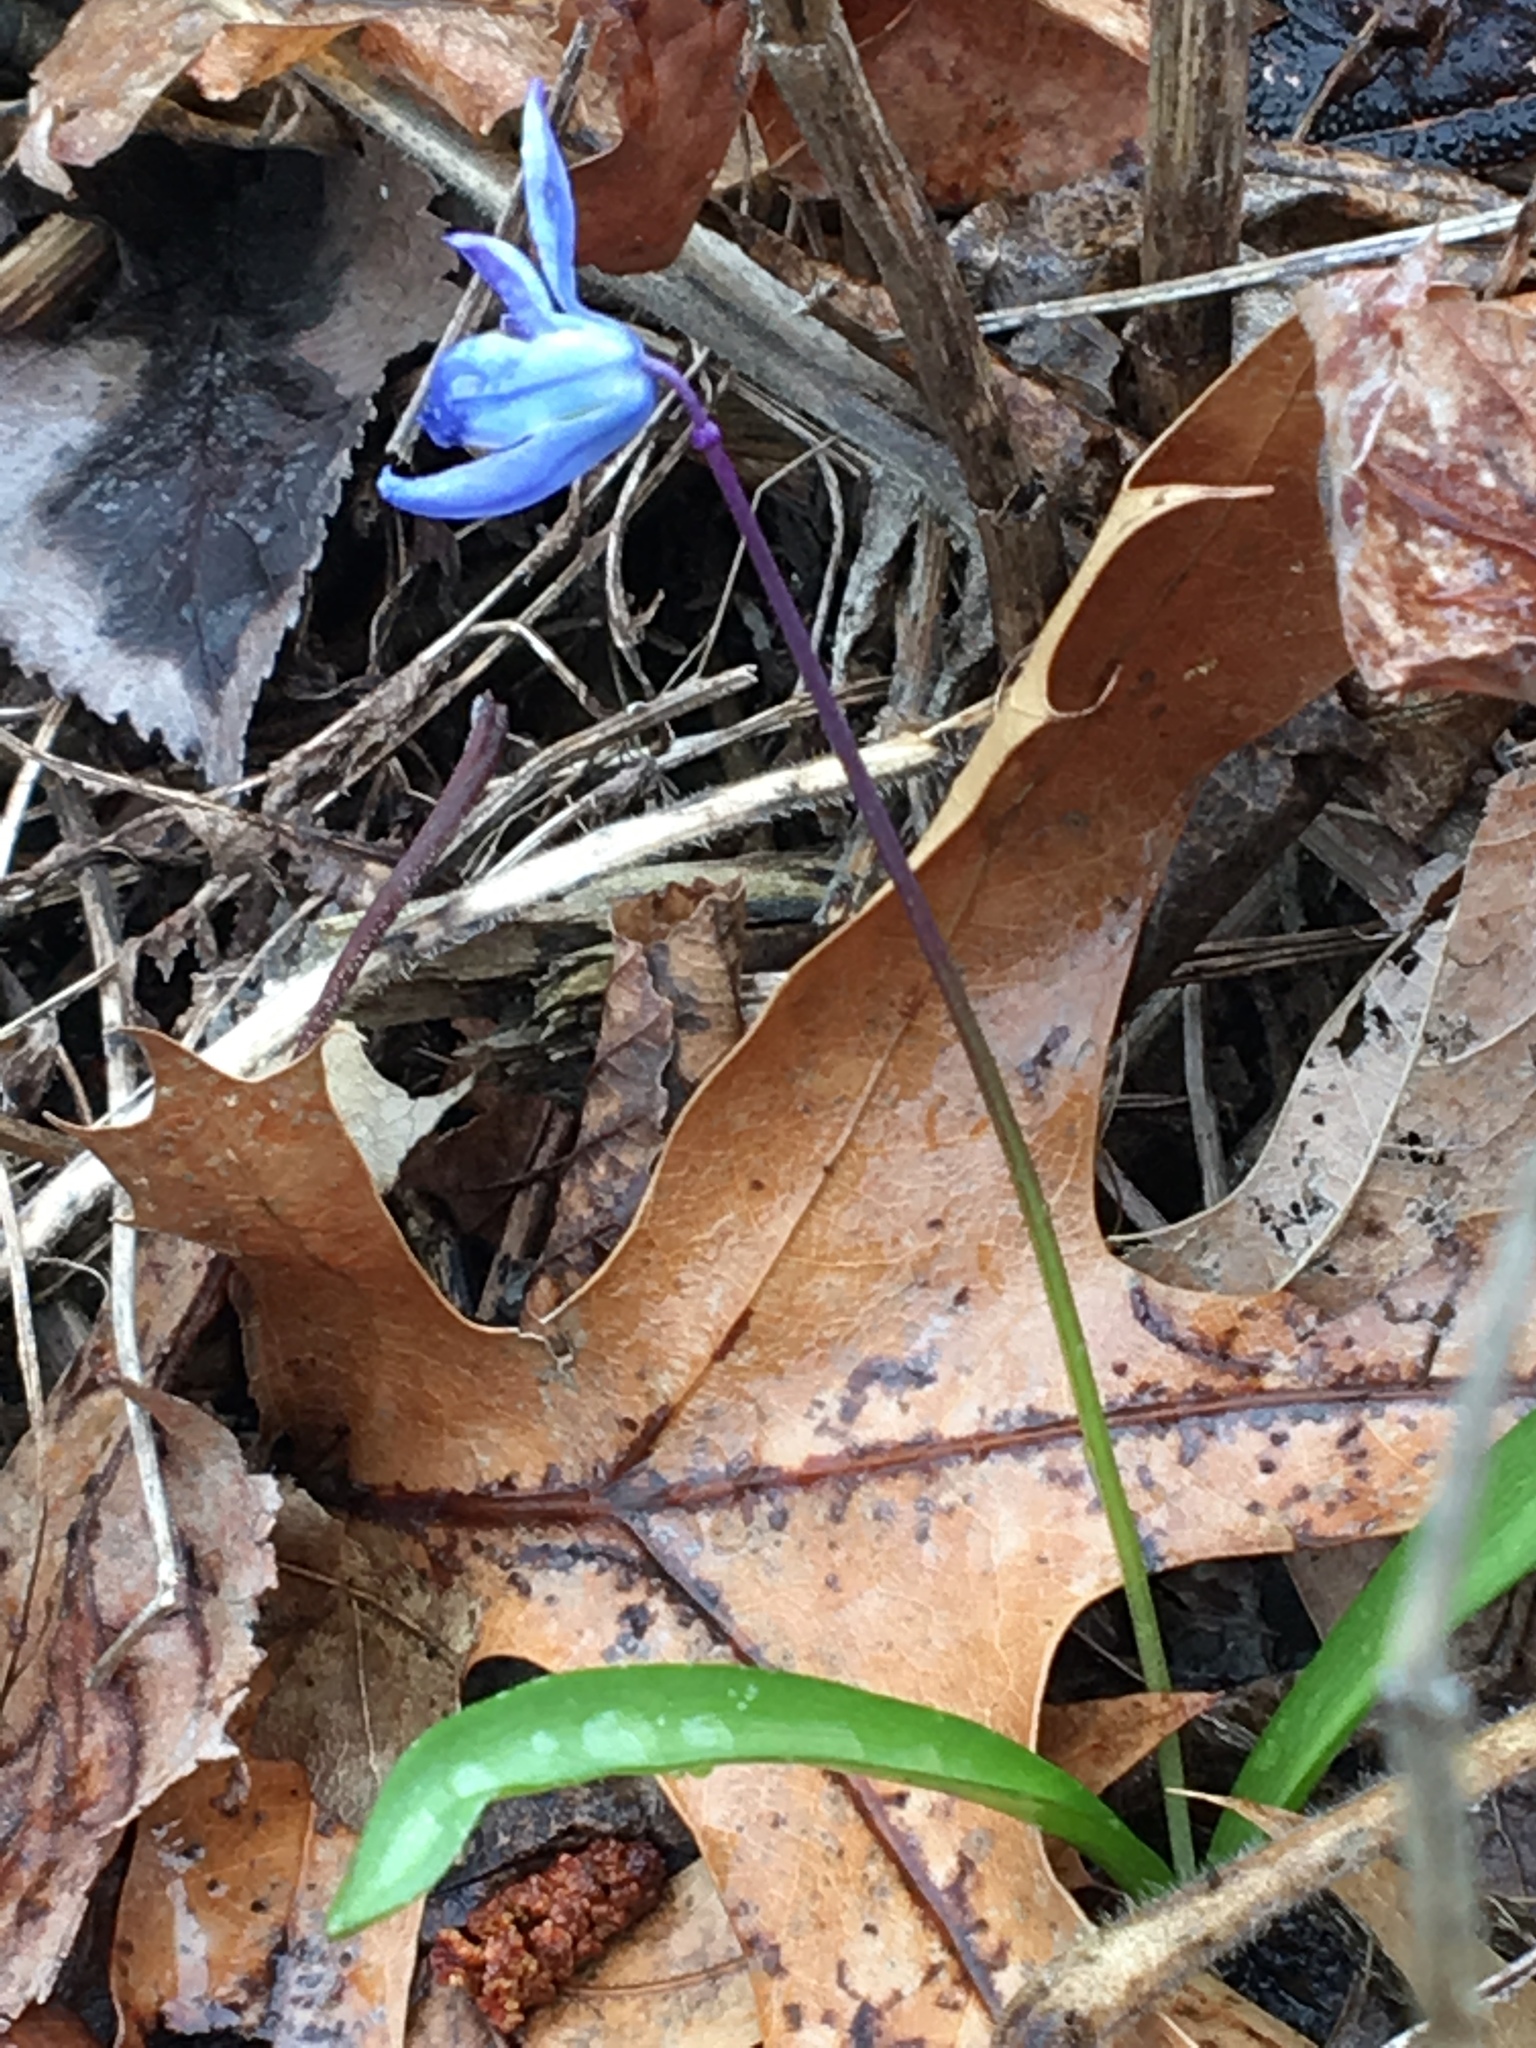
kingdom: Plantae
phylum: Tracheophyta
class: Liliopsida
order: Asparagales
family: Asparagaceae
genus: Scilla
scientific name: Scilla siberica
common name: Siberian squill
